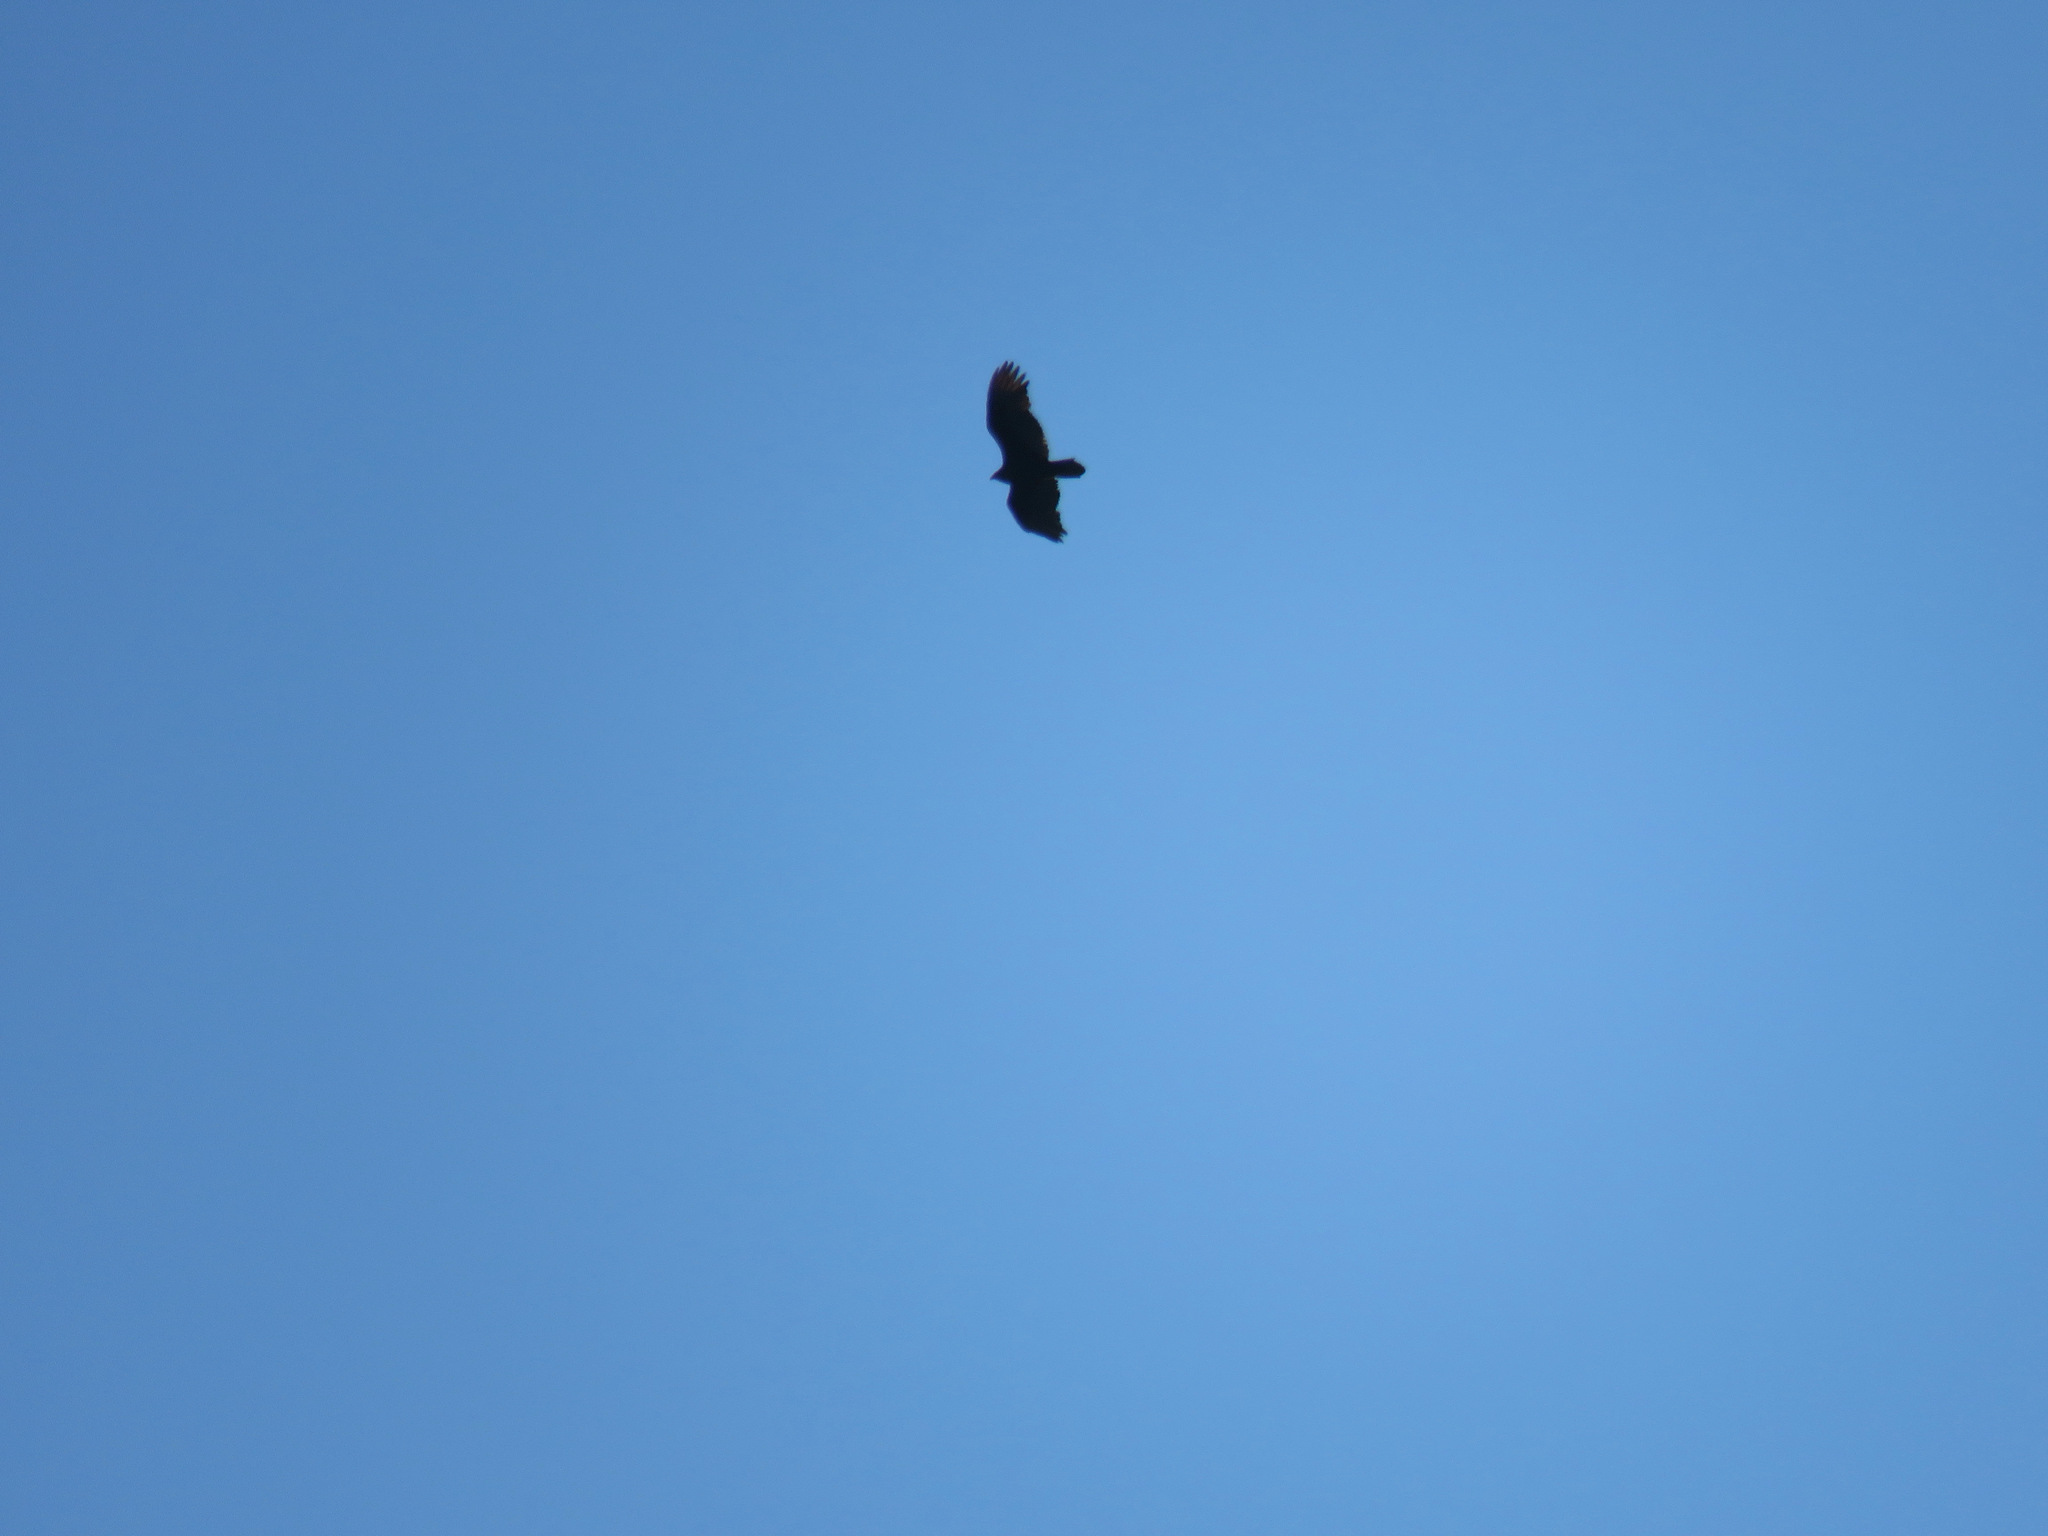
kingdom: Animalia
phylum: Chordata
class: Aves
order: Accipitriformes
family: Cathartidae
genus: Cathartes
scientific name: Cathartes aura
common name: Turkey vulture
